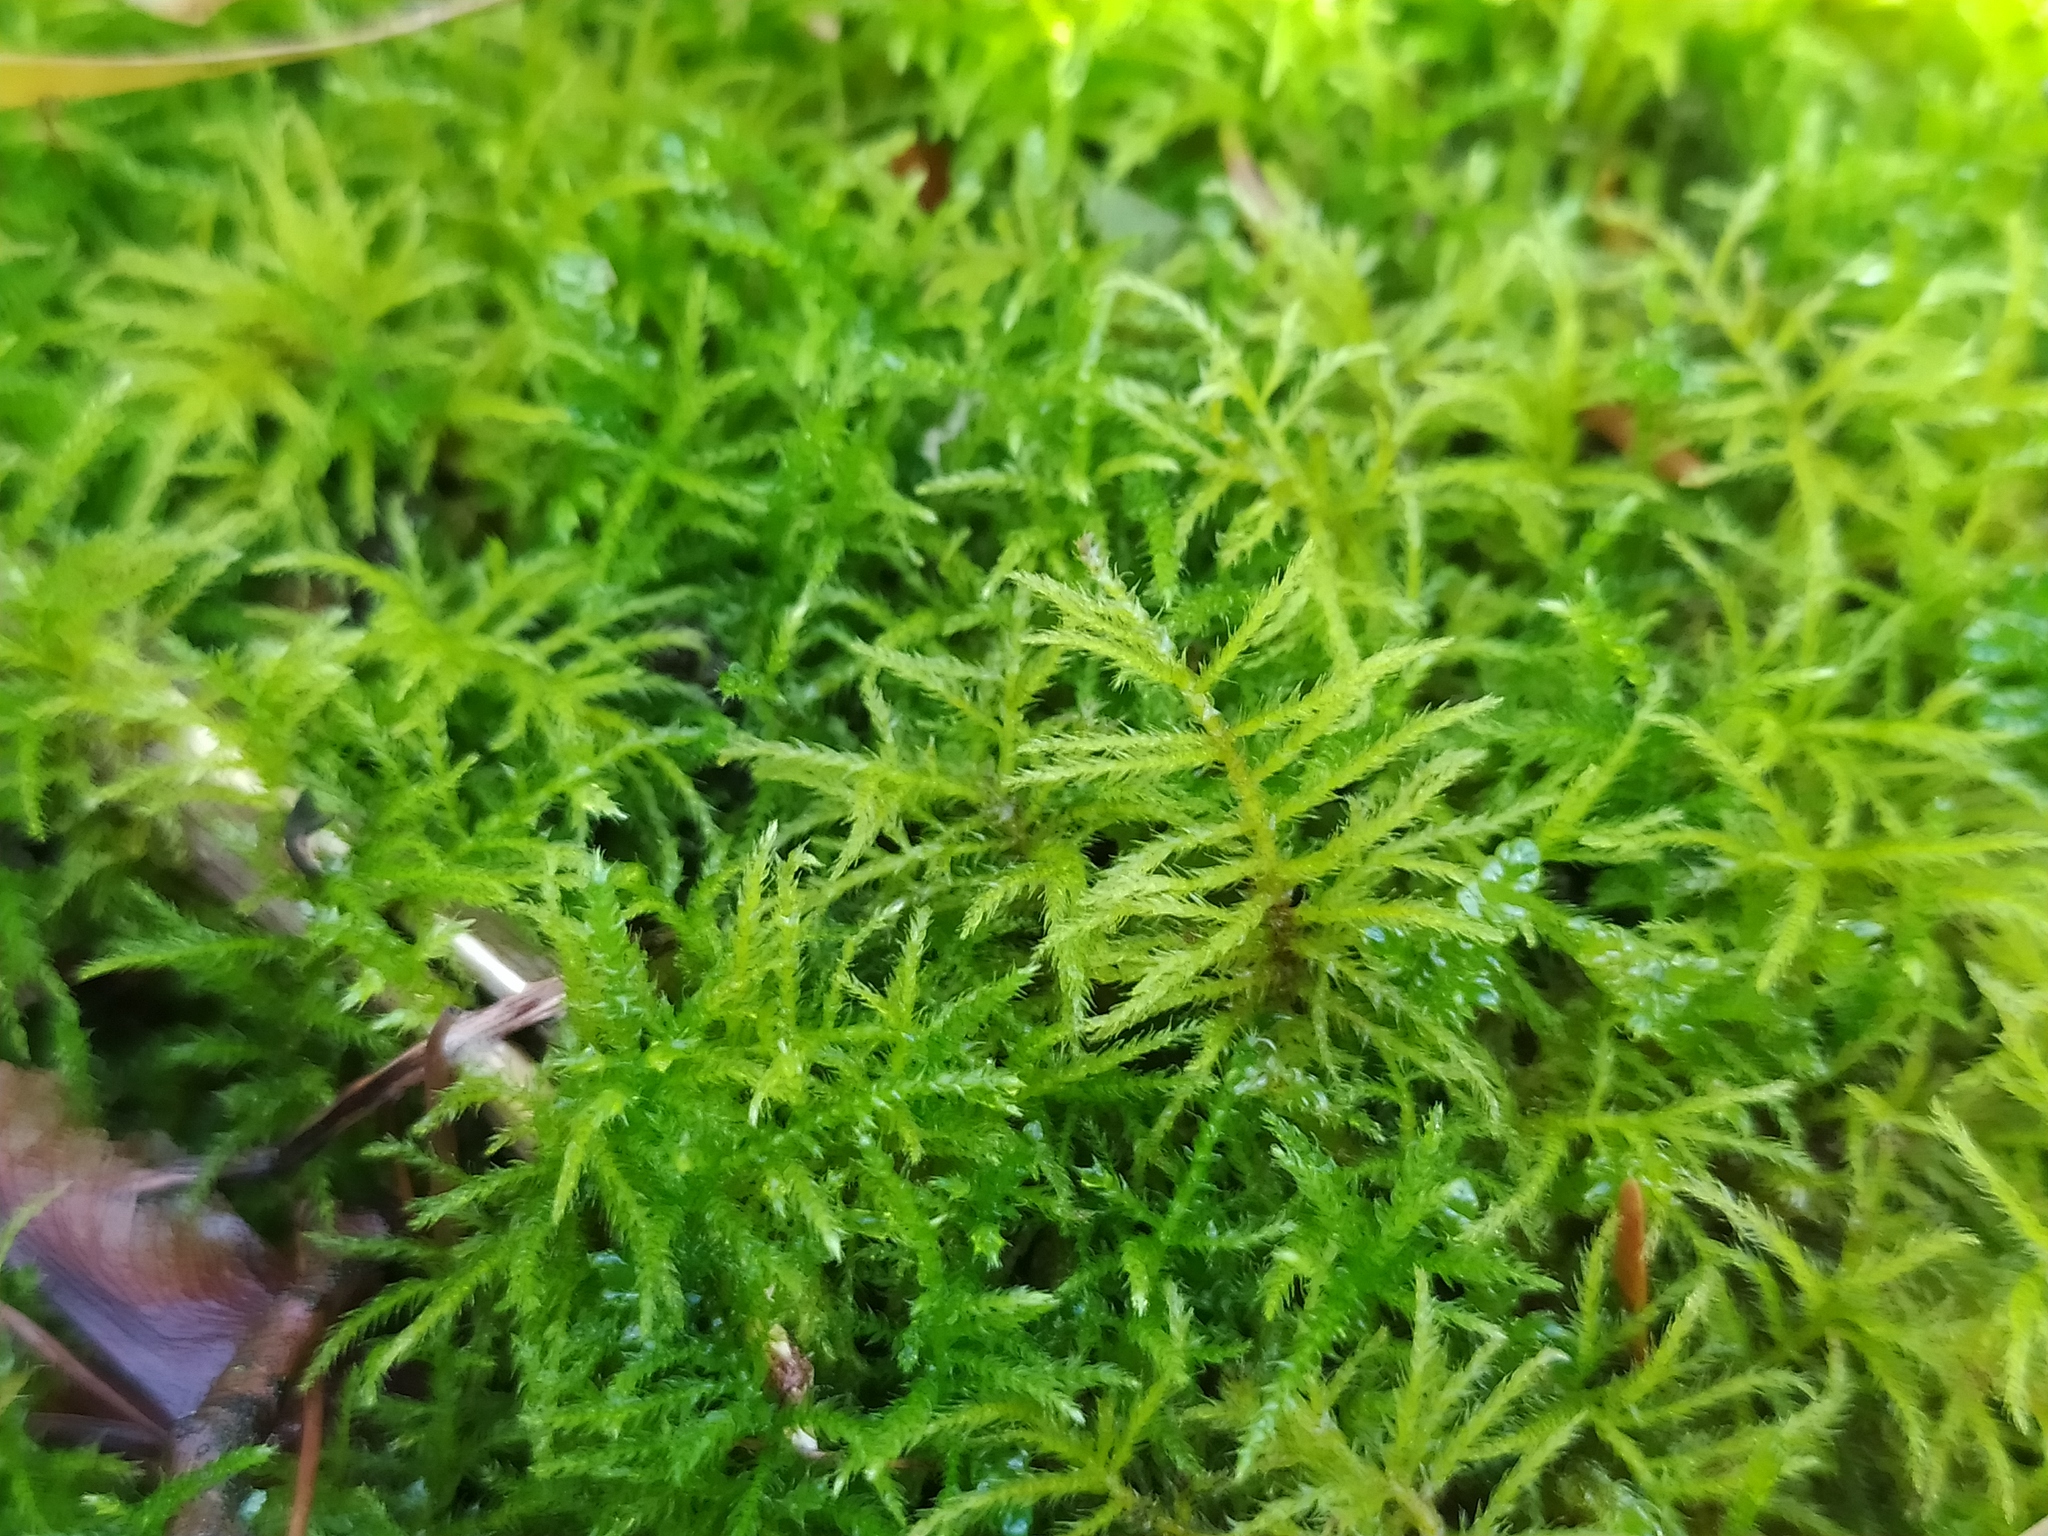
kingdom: Plantae
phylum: Bryophyta
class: Bryopsida
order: Hypnales
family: Brachytheciaceae
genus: Sciuro-hypnum
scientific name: Sciuro-hypnum reflexum
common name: Reflexed feather-moss
